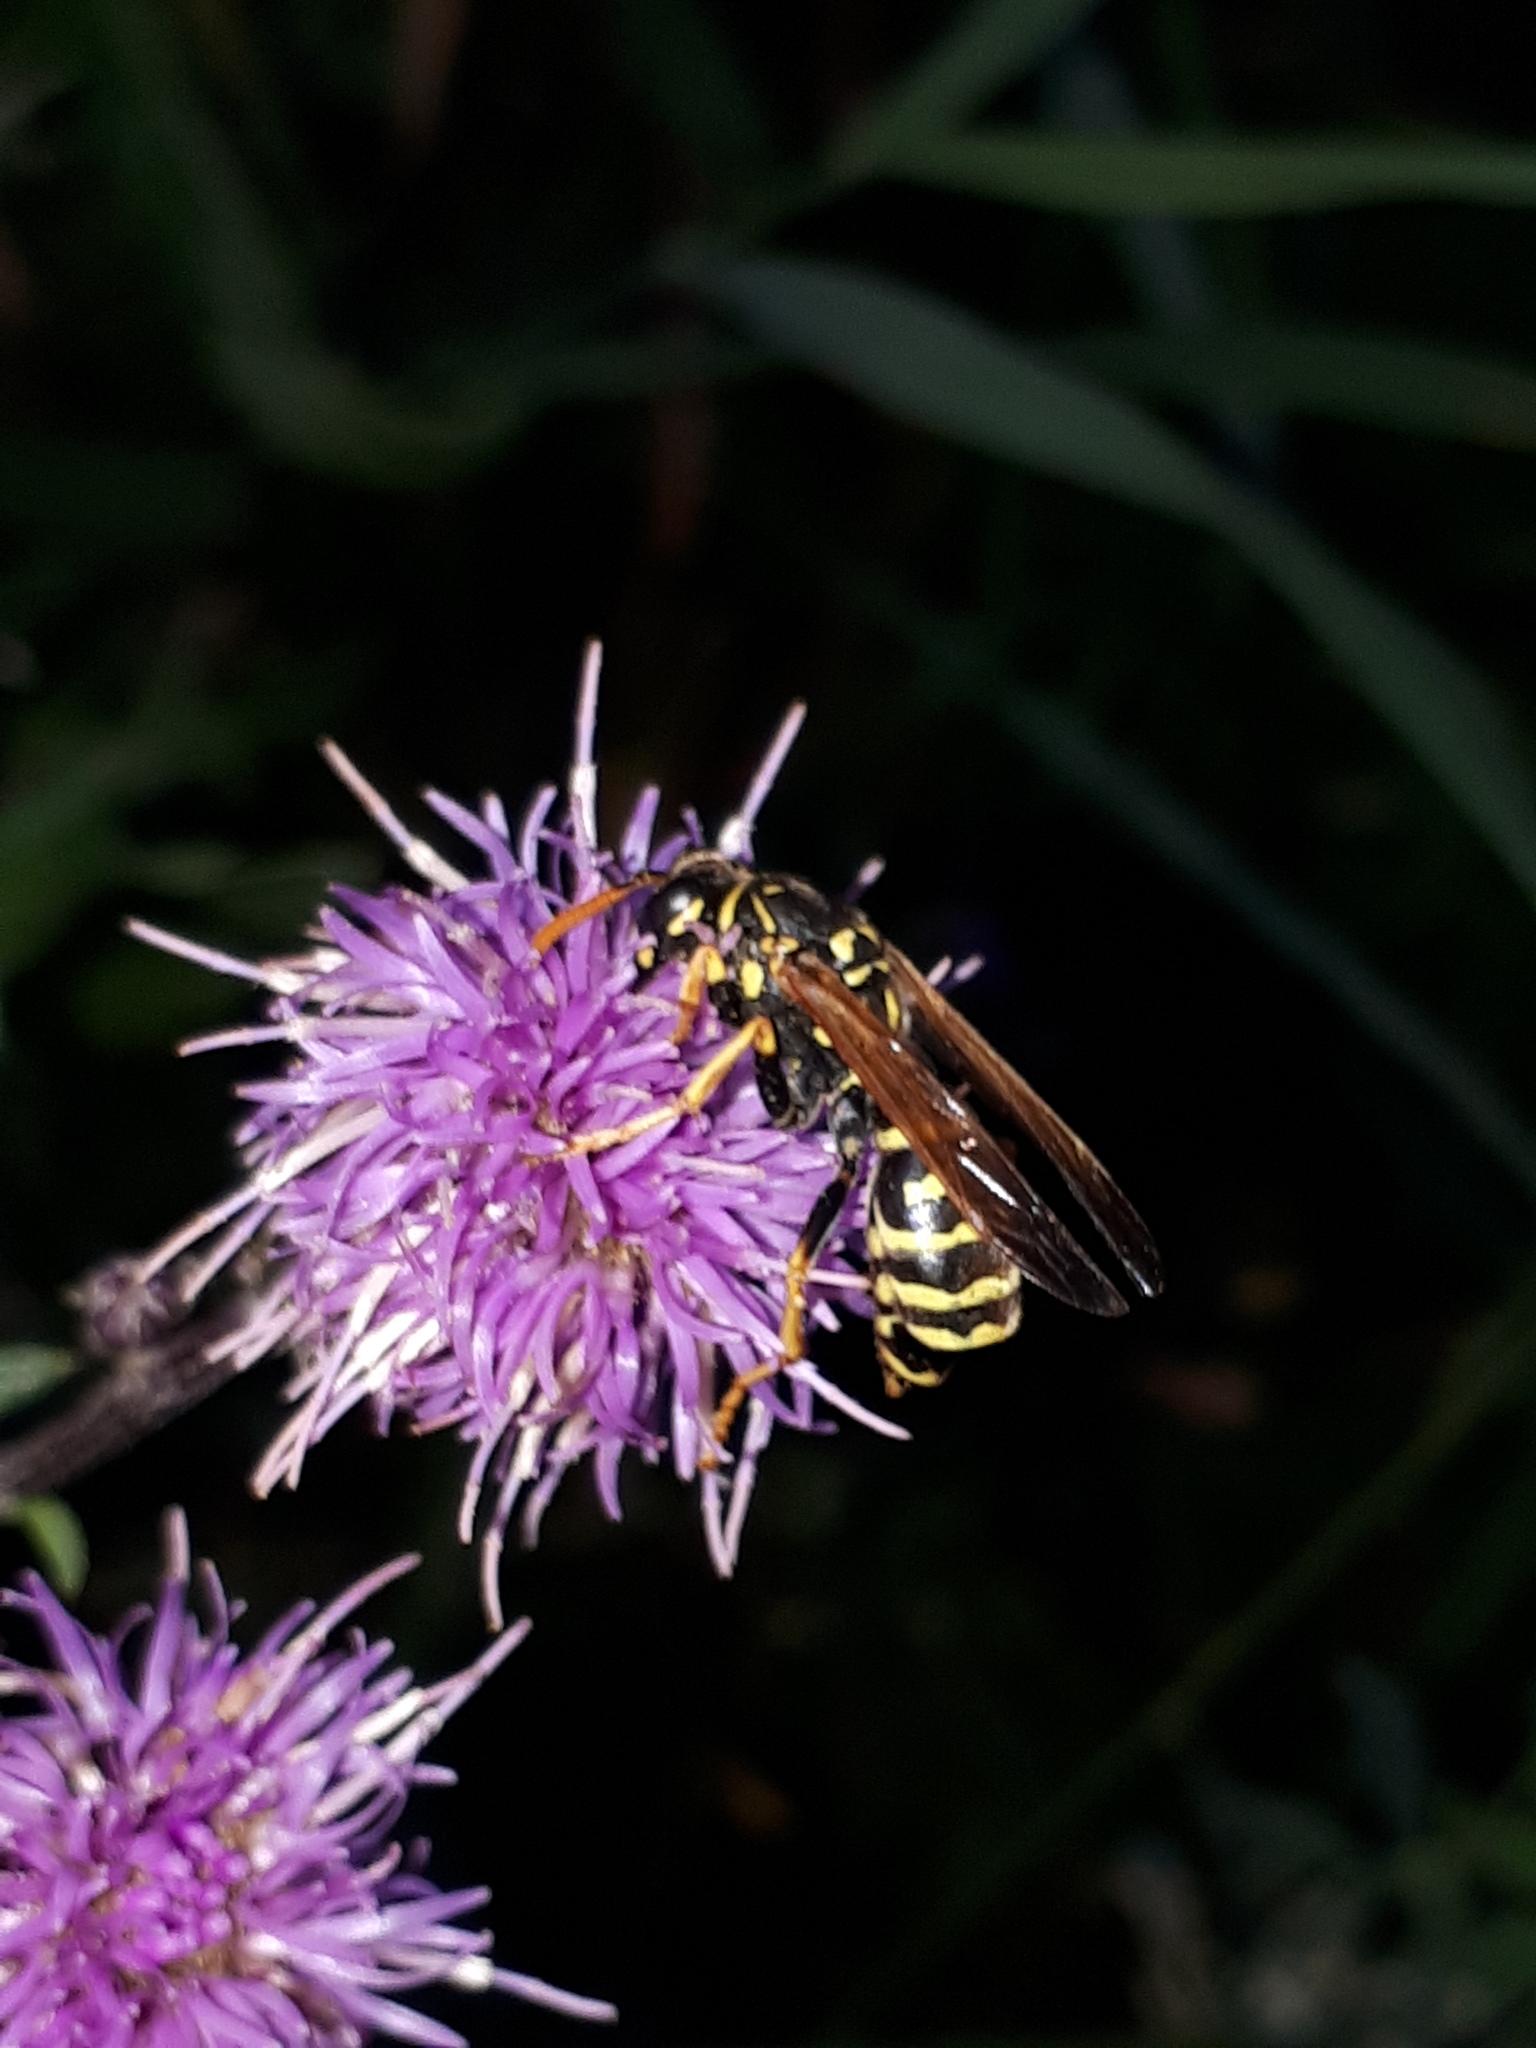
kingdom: Animalia
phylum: Arthropoda
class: Insecta
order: Hymenoptera
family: Eumenidae
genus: Polistes
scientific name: Polistes dominula
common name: Paper wasp
